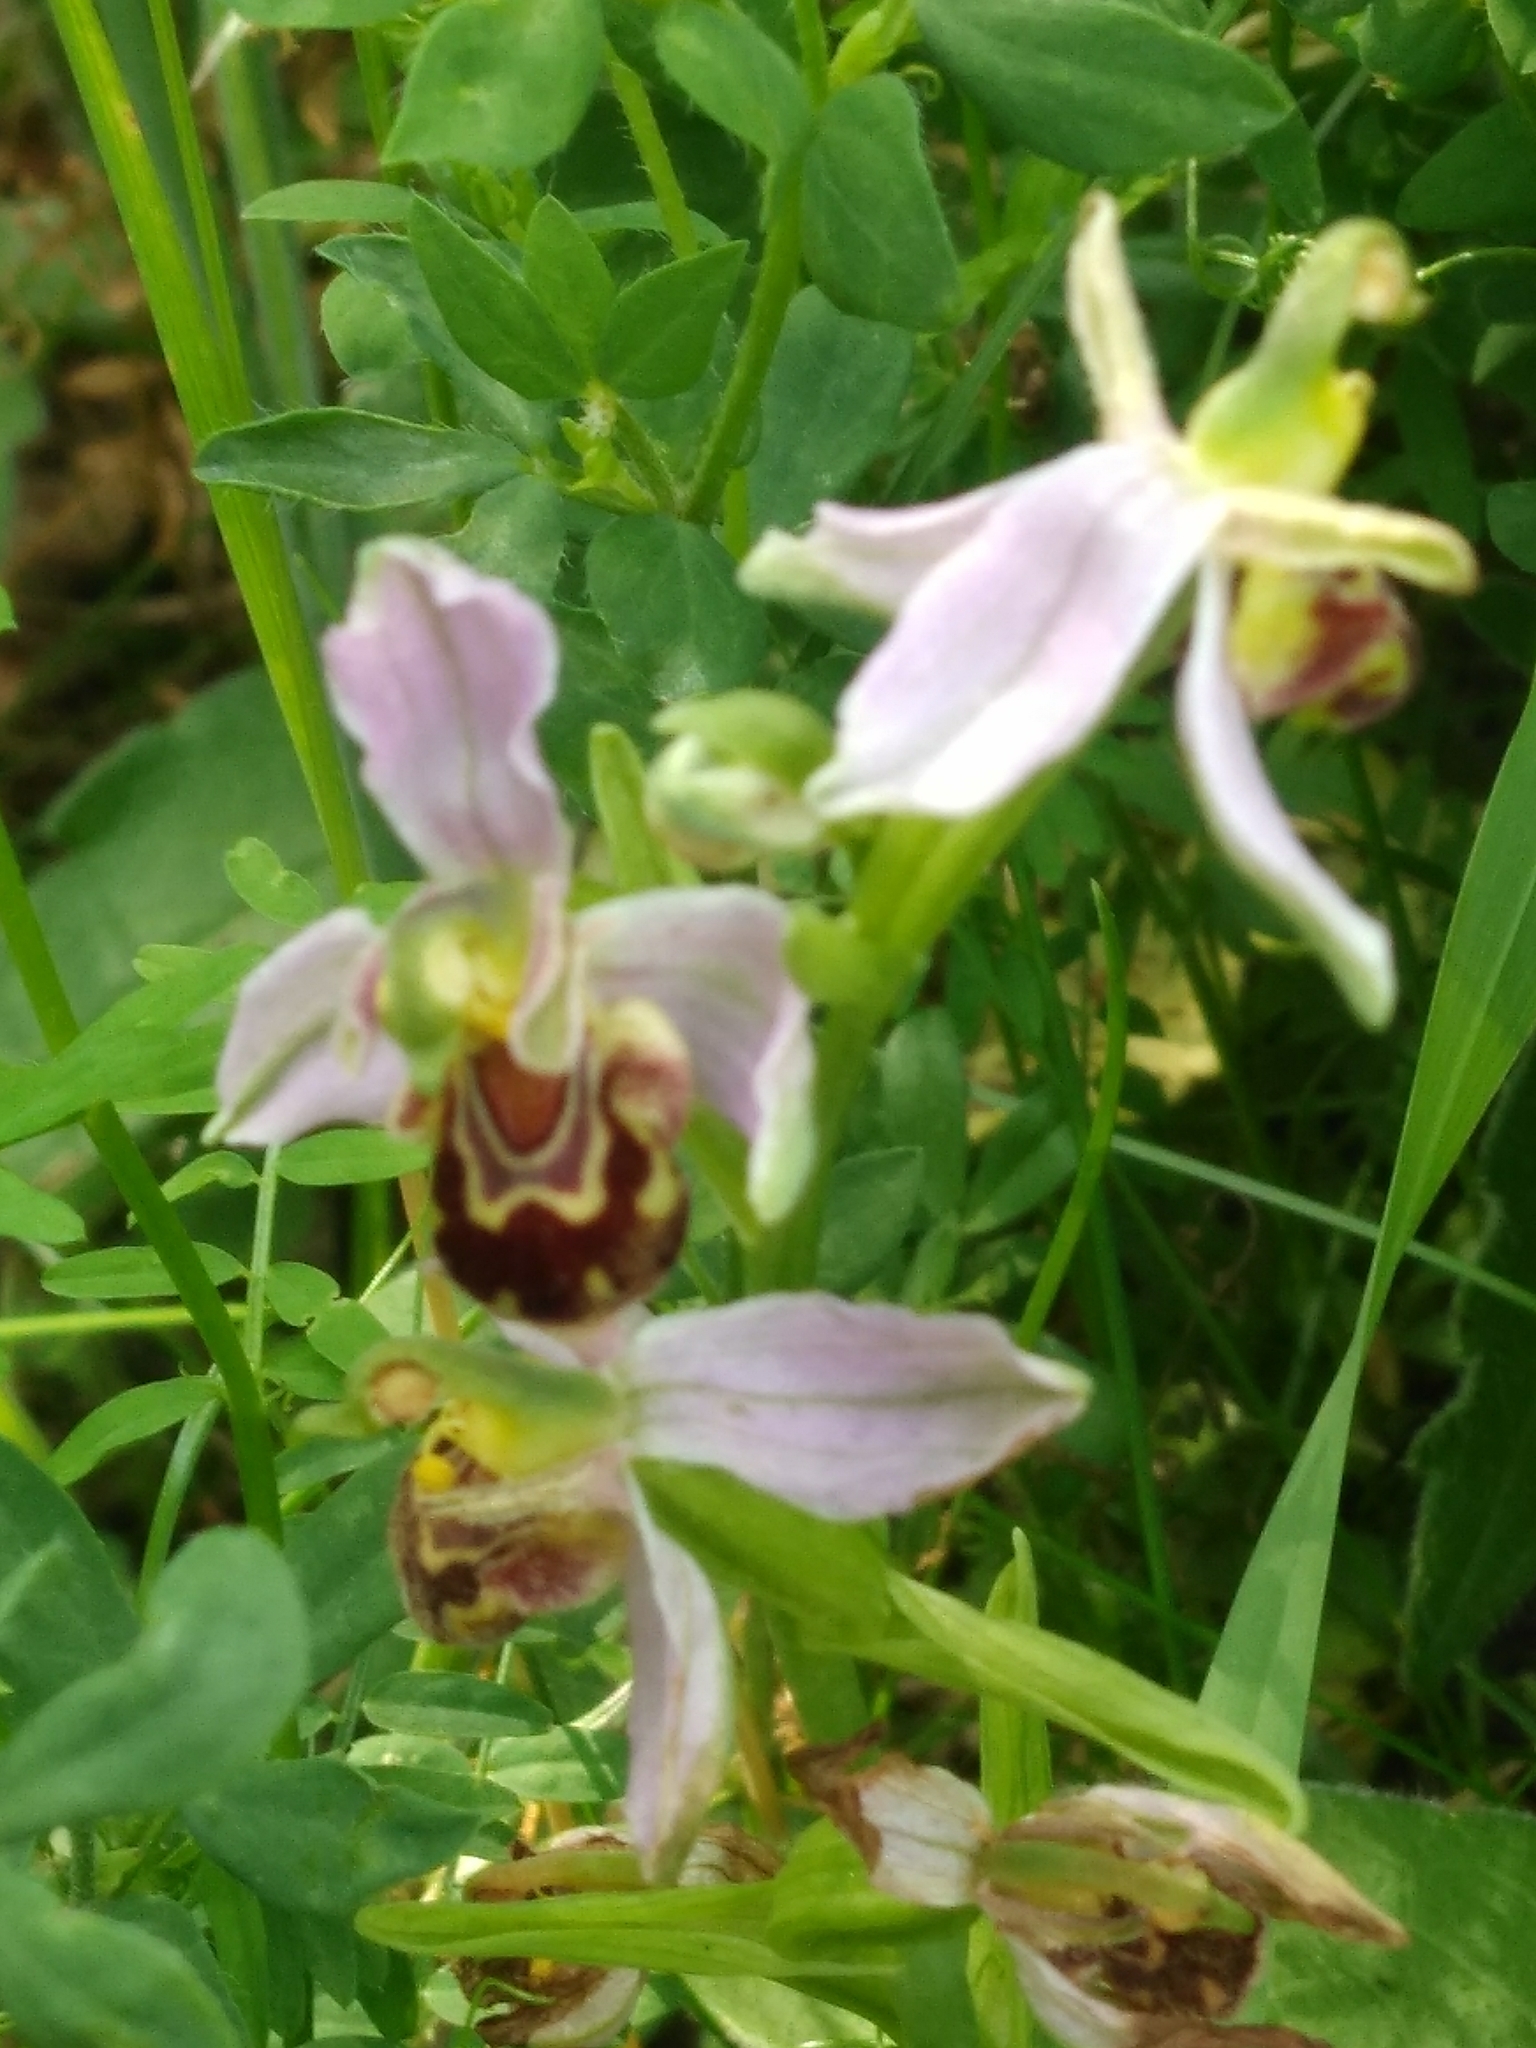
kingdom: Plantae
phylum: Tracheophyta
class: Liliopsida
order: Asparagales
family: Orchidaceae
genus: Ophrys
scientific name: Ophrys apifera
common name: Bee orchid
